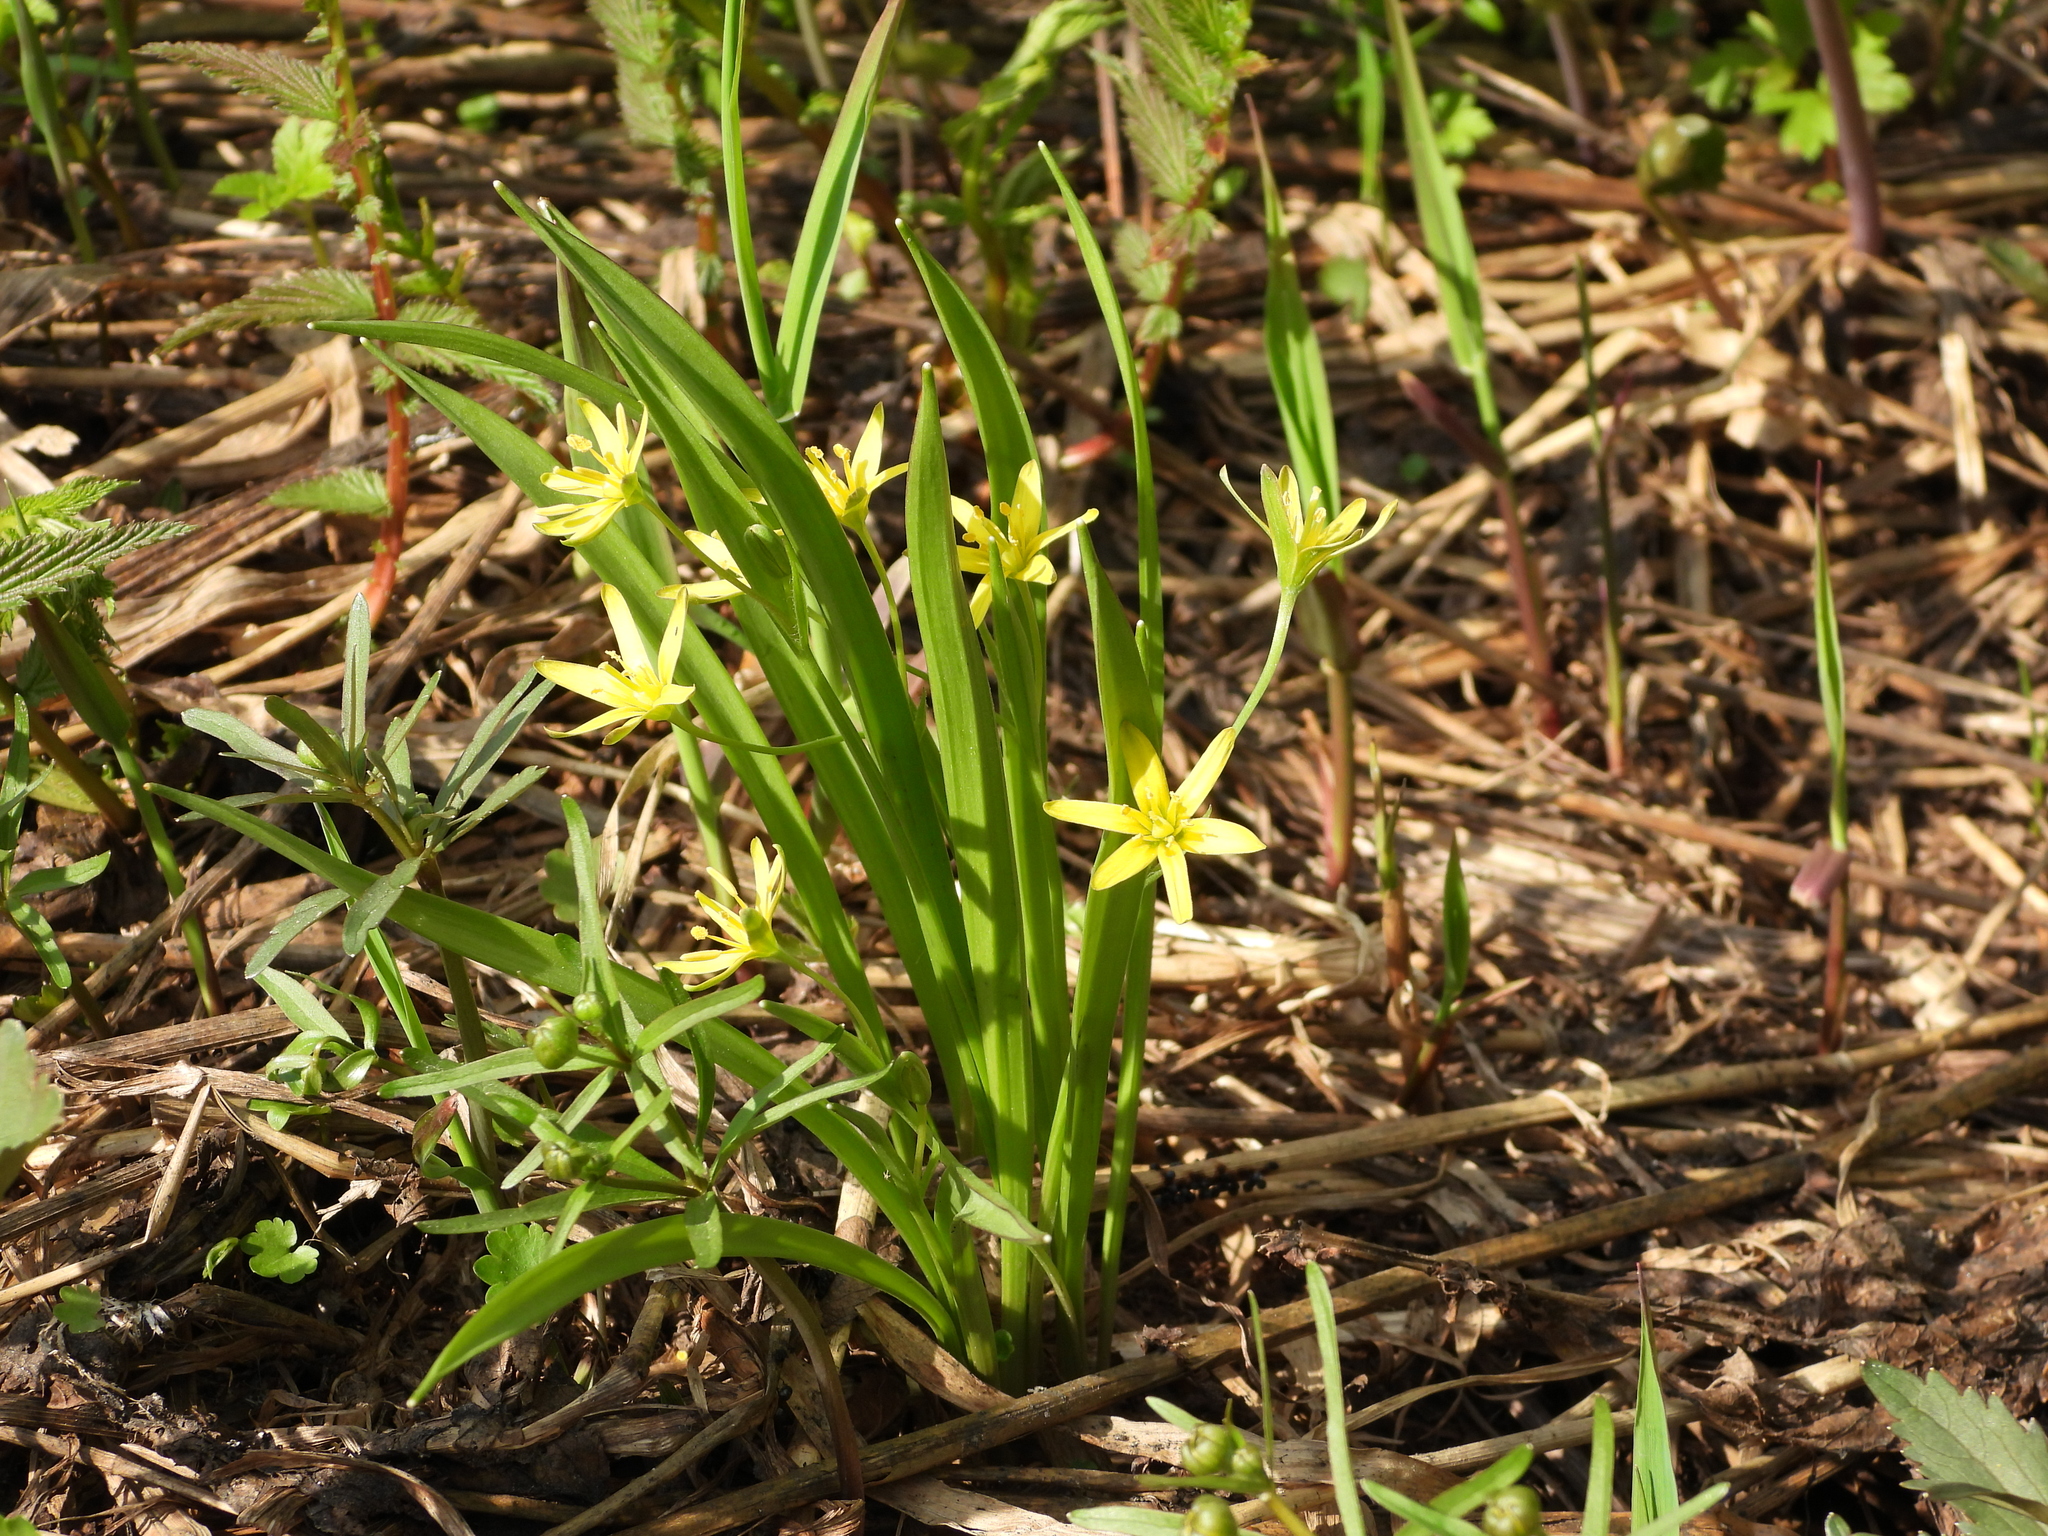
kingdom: Plantae
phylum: Tracheophyta
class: Liliopsida
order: Liliales
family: Liliaceae
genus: Gagea
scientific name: Gagea lutea
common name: Yellow star-of-bethlehem
